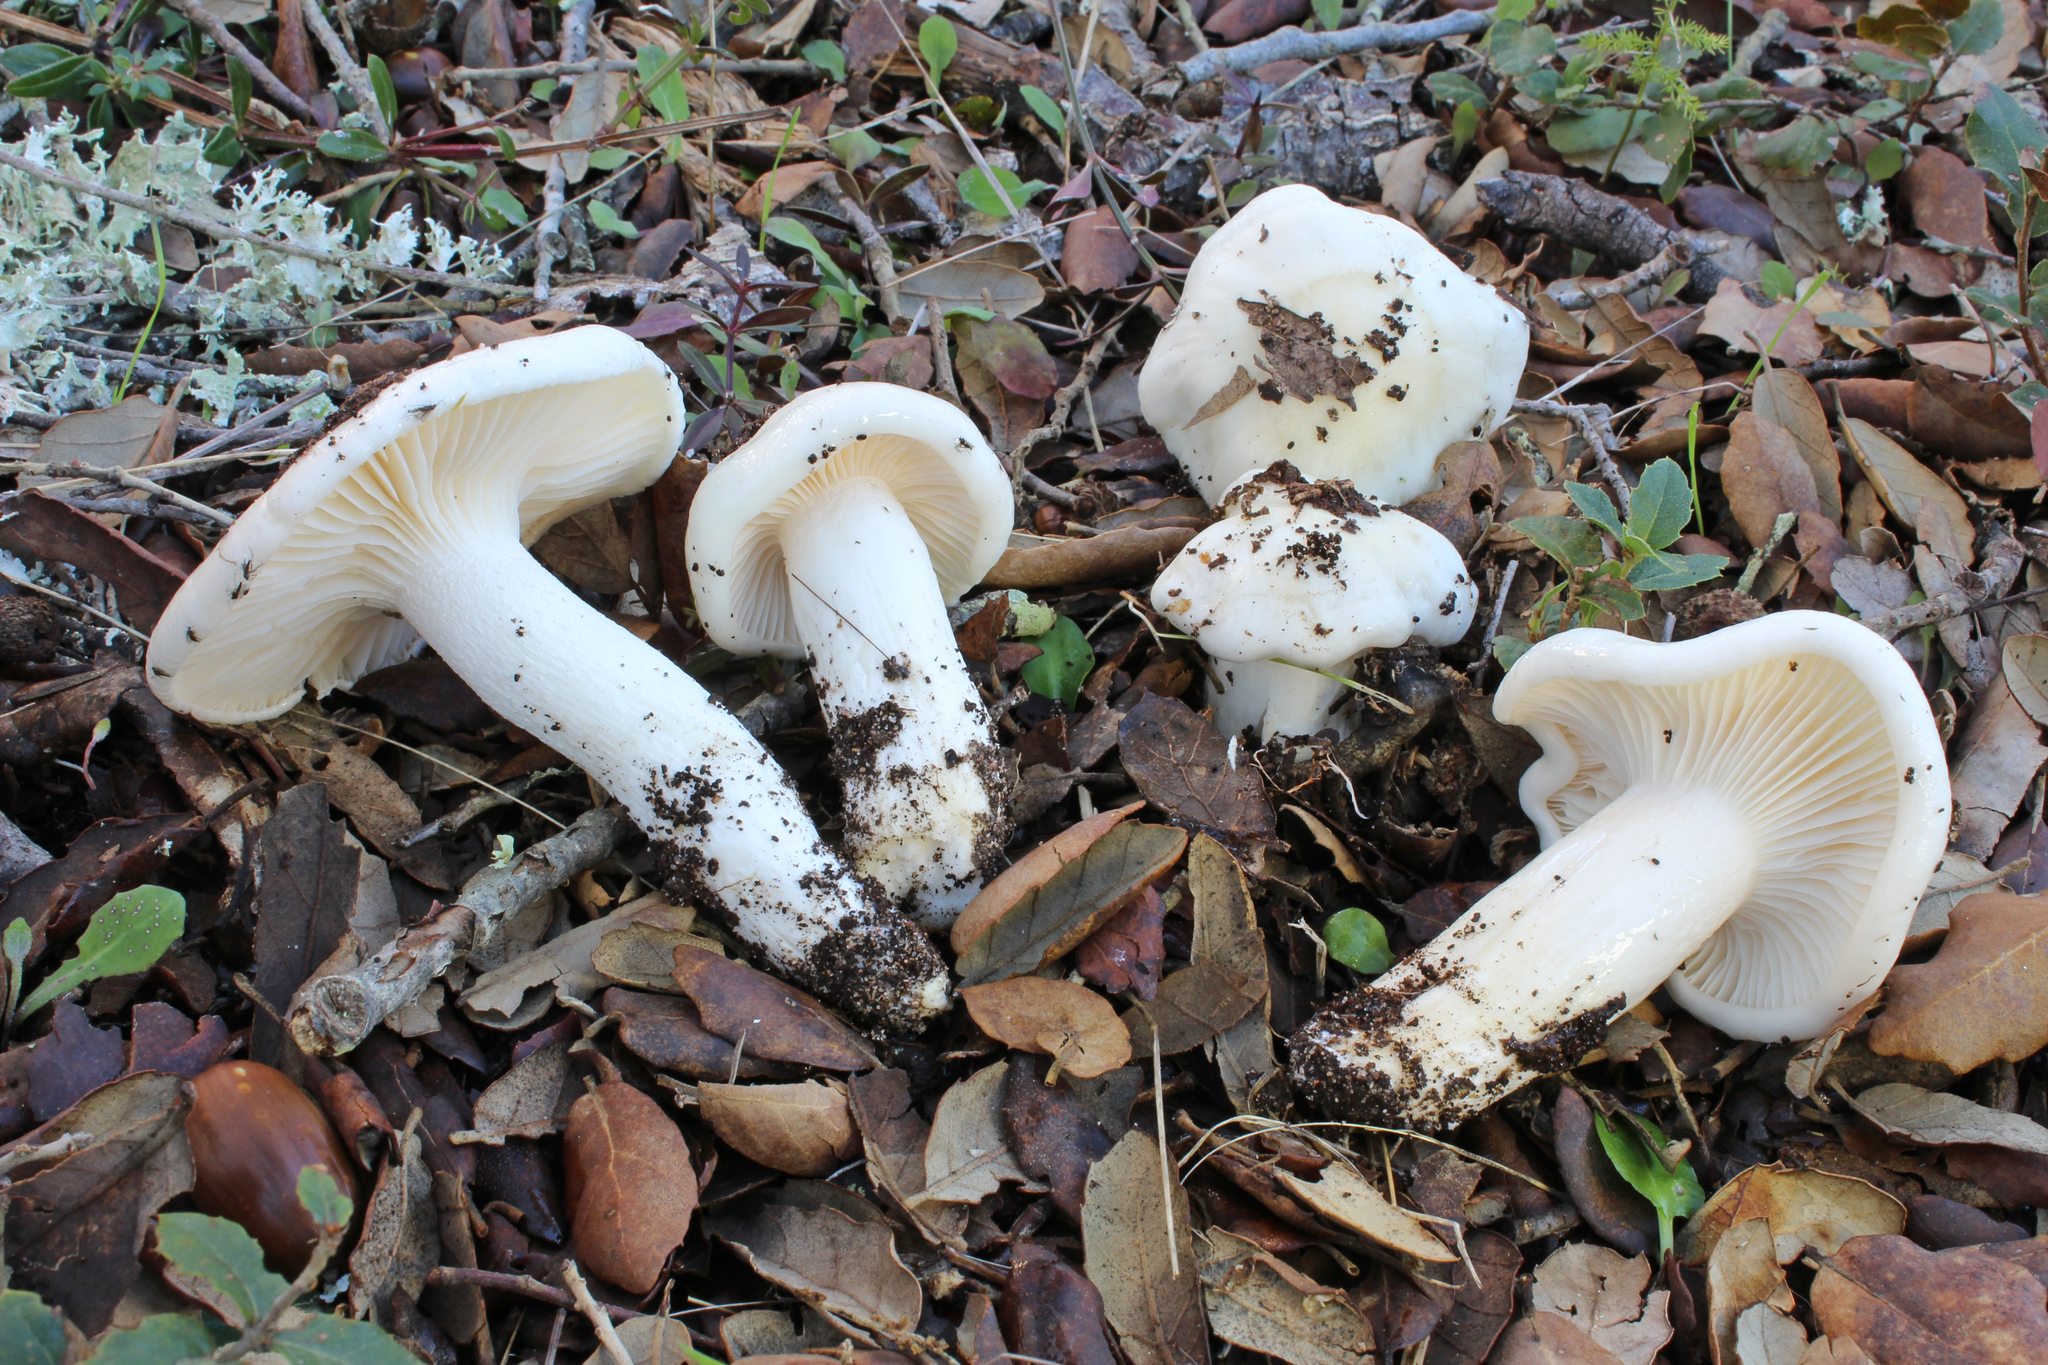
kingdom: Fungi
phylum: Basidiomycota
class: Agaricomycetes
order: Agaricales
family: Hygrophoraceae
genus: Hygrophorus
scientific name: Hygrophorus cossus
